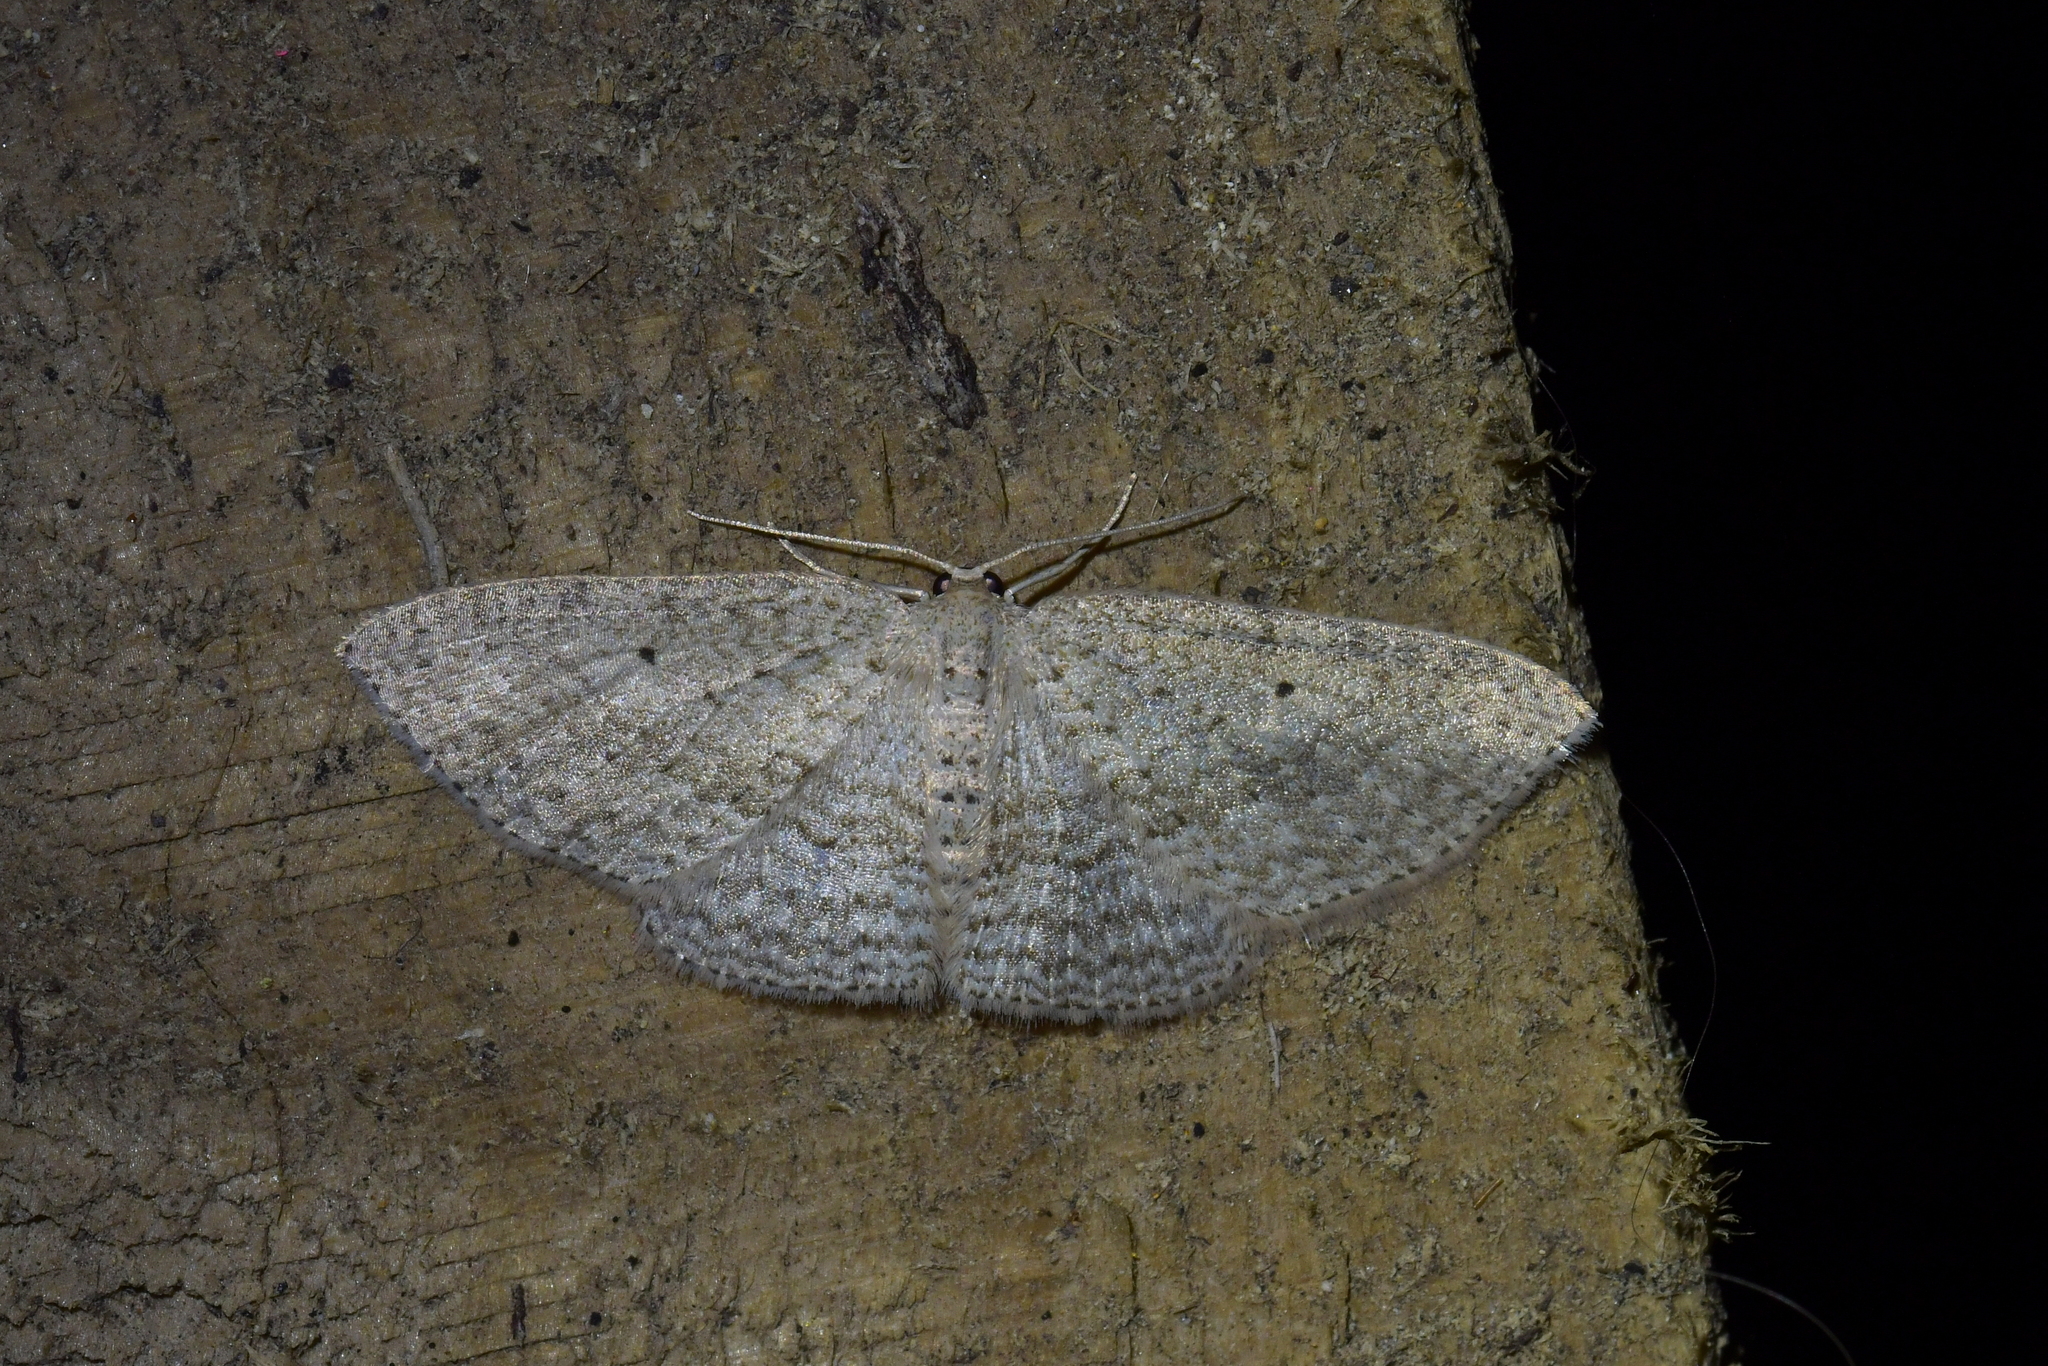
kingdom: Animalia
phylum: Arthropoda
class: Insecta
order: Lepidoptera
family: Geometridae
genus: Poecilasthena
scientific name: Poecilasthena schistaria
